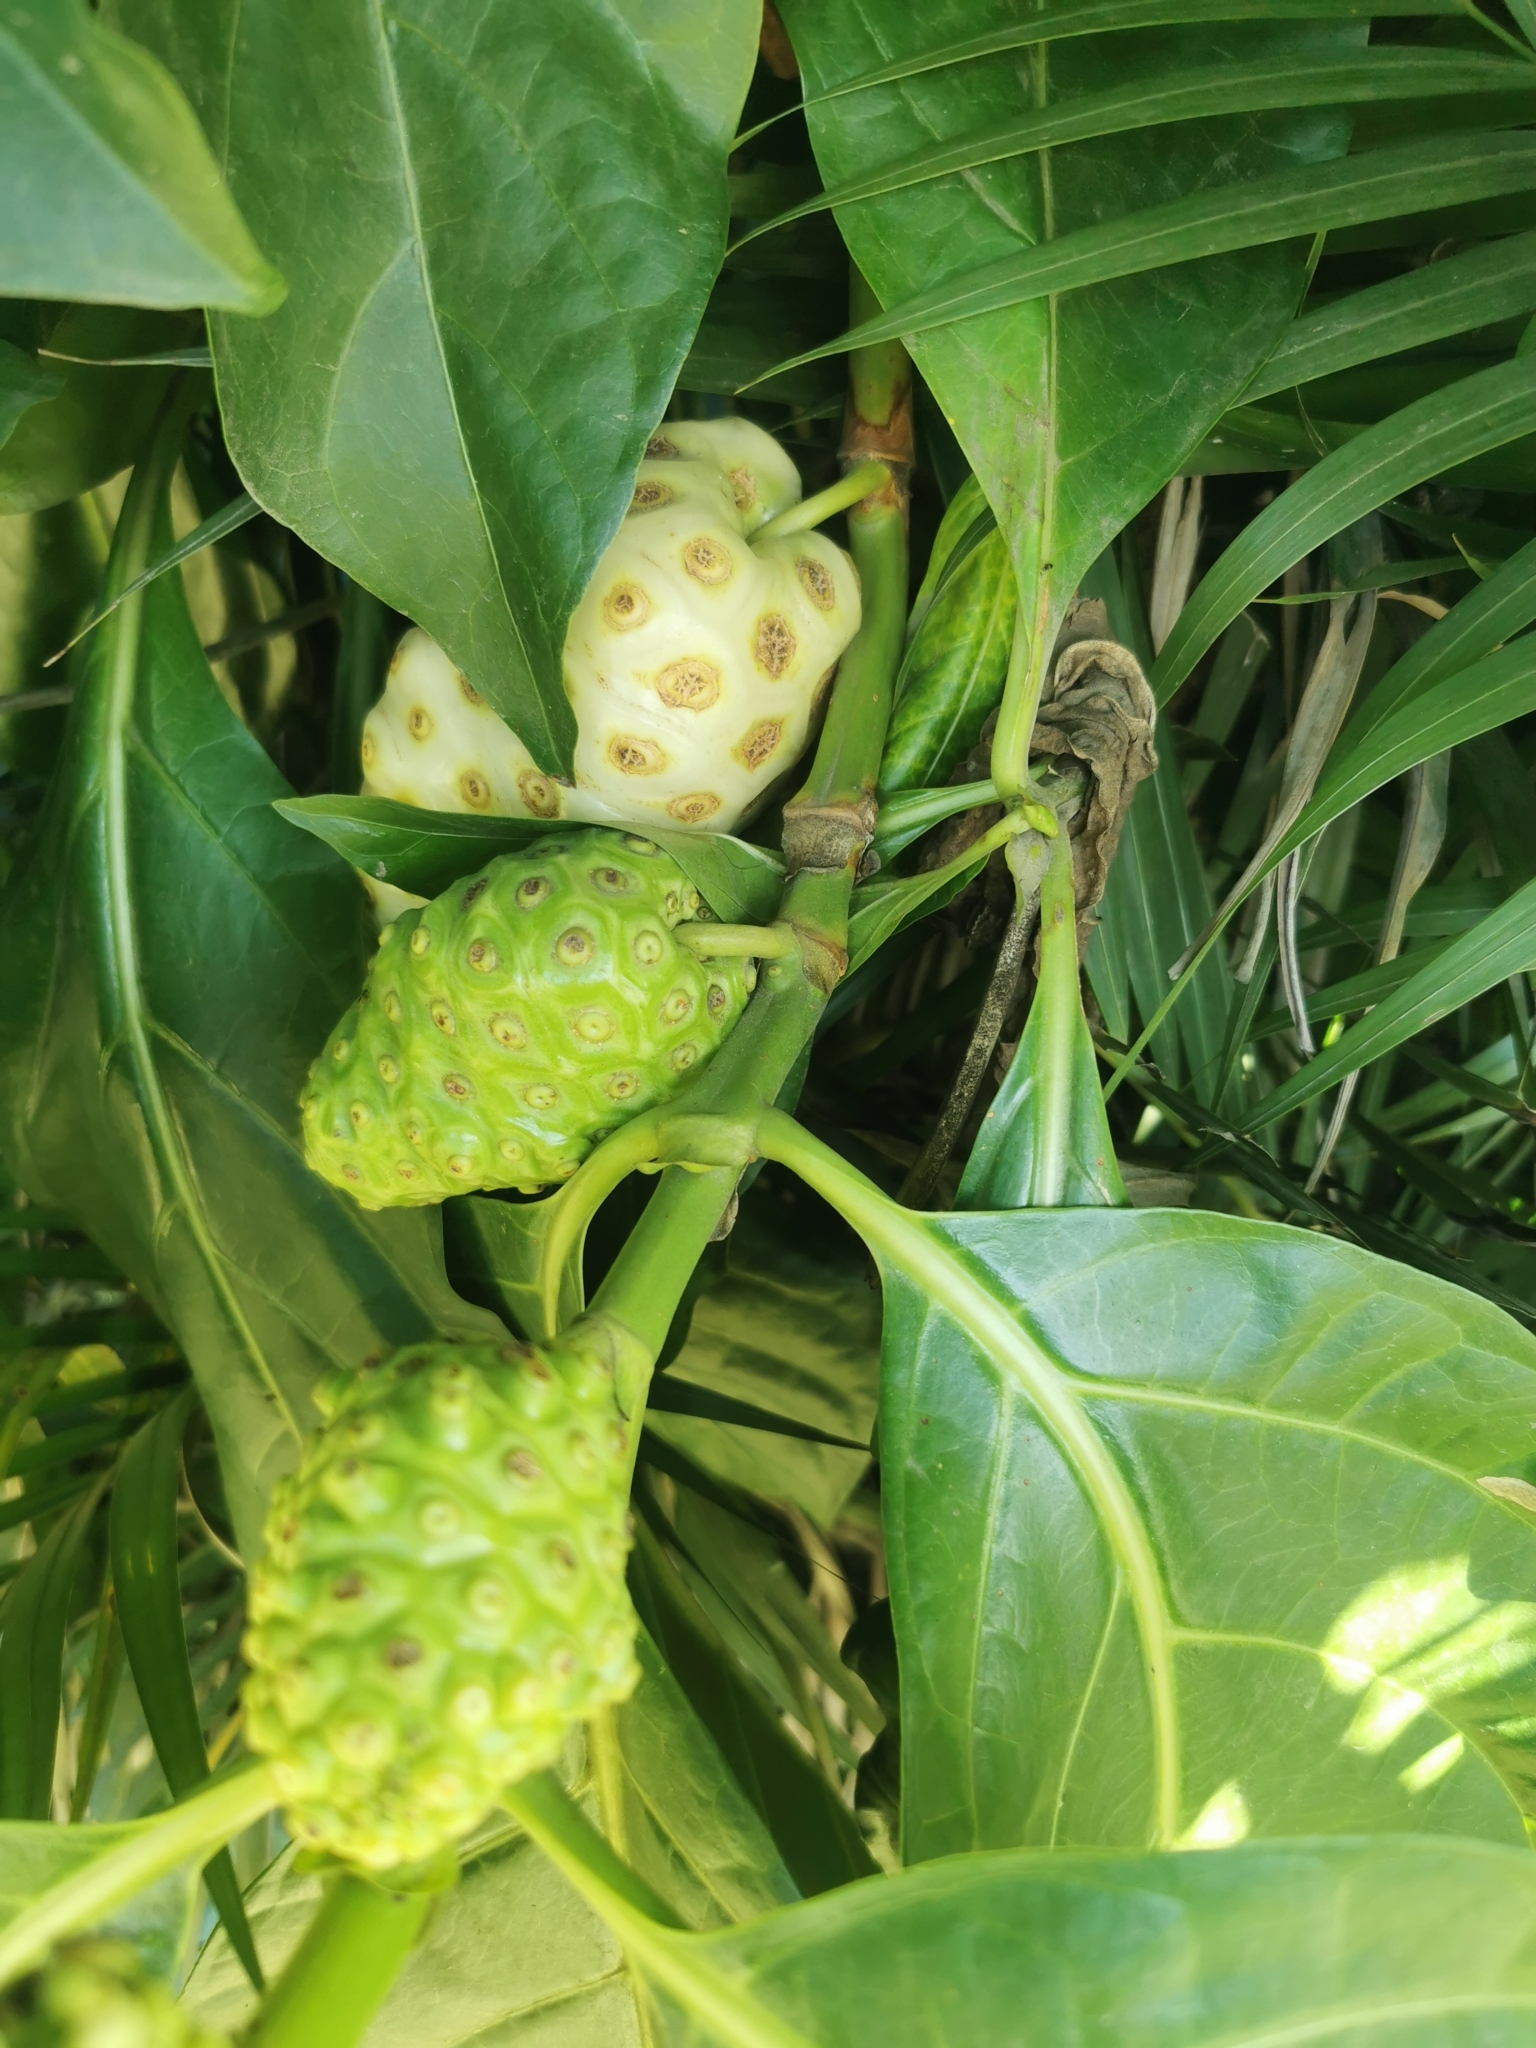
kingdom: Plantae
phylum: Tracheophyta
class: Magnoliopsida
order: Gentianales
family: Rubiaceae
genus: Morinda
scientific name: Morinda citrifolia
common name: Indian-mulberry
